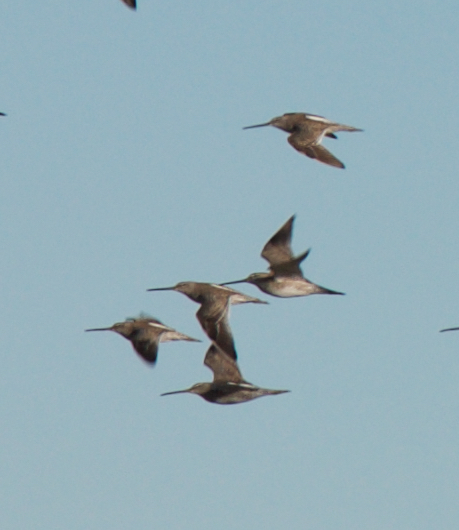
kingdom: Animalia
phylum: Chordata
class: Aves
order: Charadriiformes
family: Scolopacidae
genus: Limnodromus
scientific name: Limnodromus scolopaceus
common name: Long-billed dowitcher
